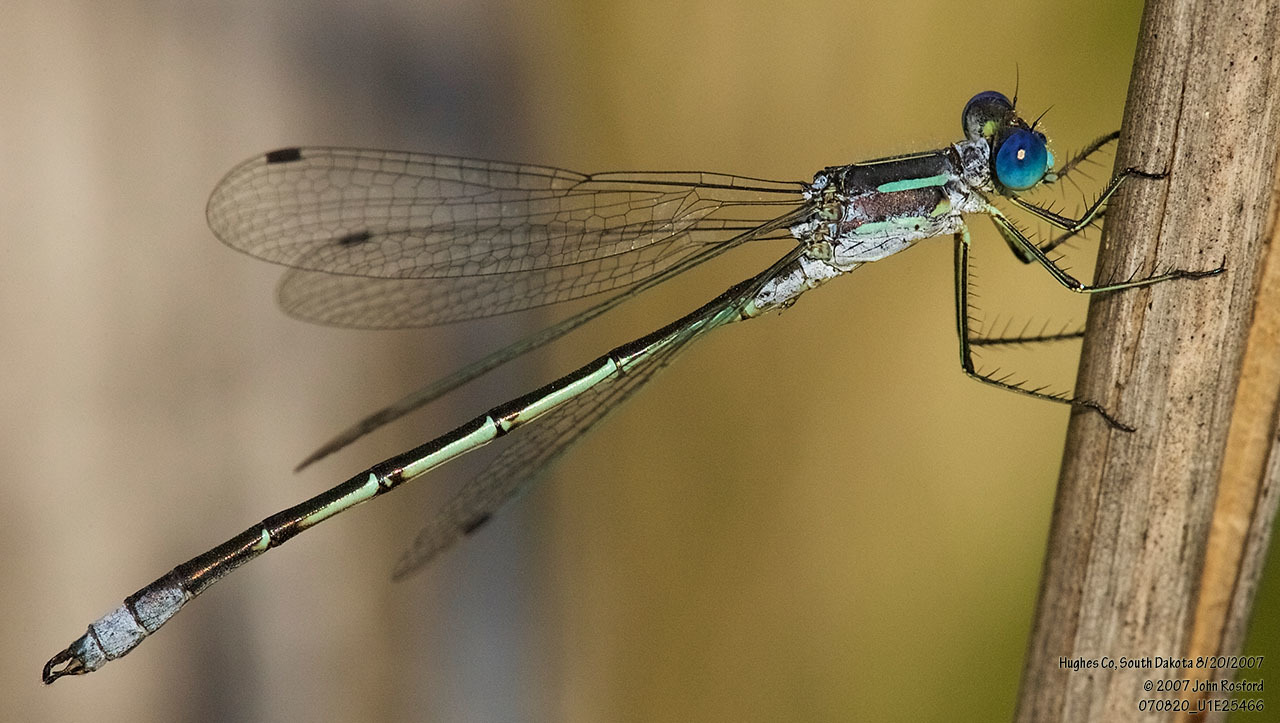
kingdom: Animalia
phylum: Arthropoda
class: Insecta
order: Odonata
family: Lestidae
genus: Lestes
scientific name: Lestes unguiculatus
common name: Lyre-tipped spreadwing
